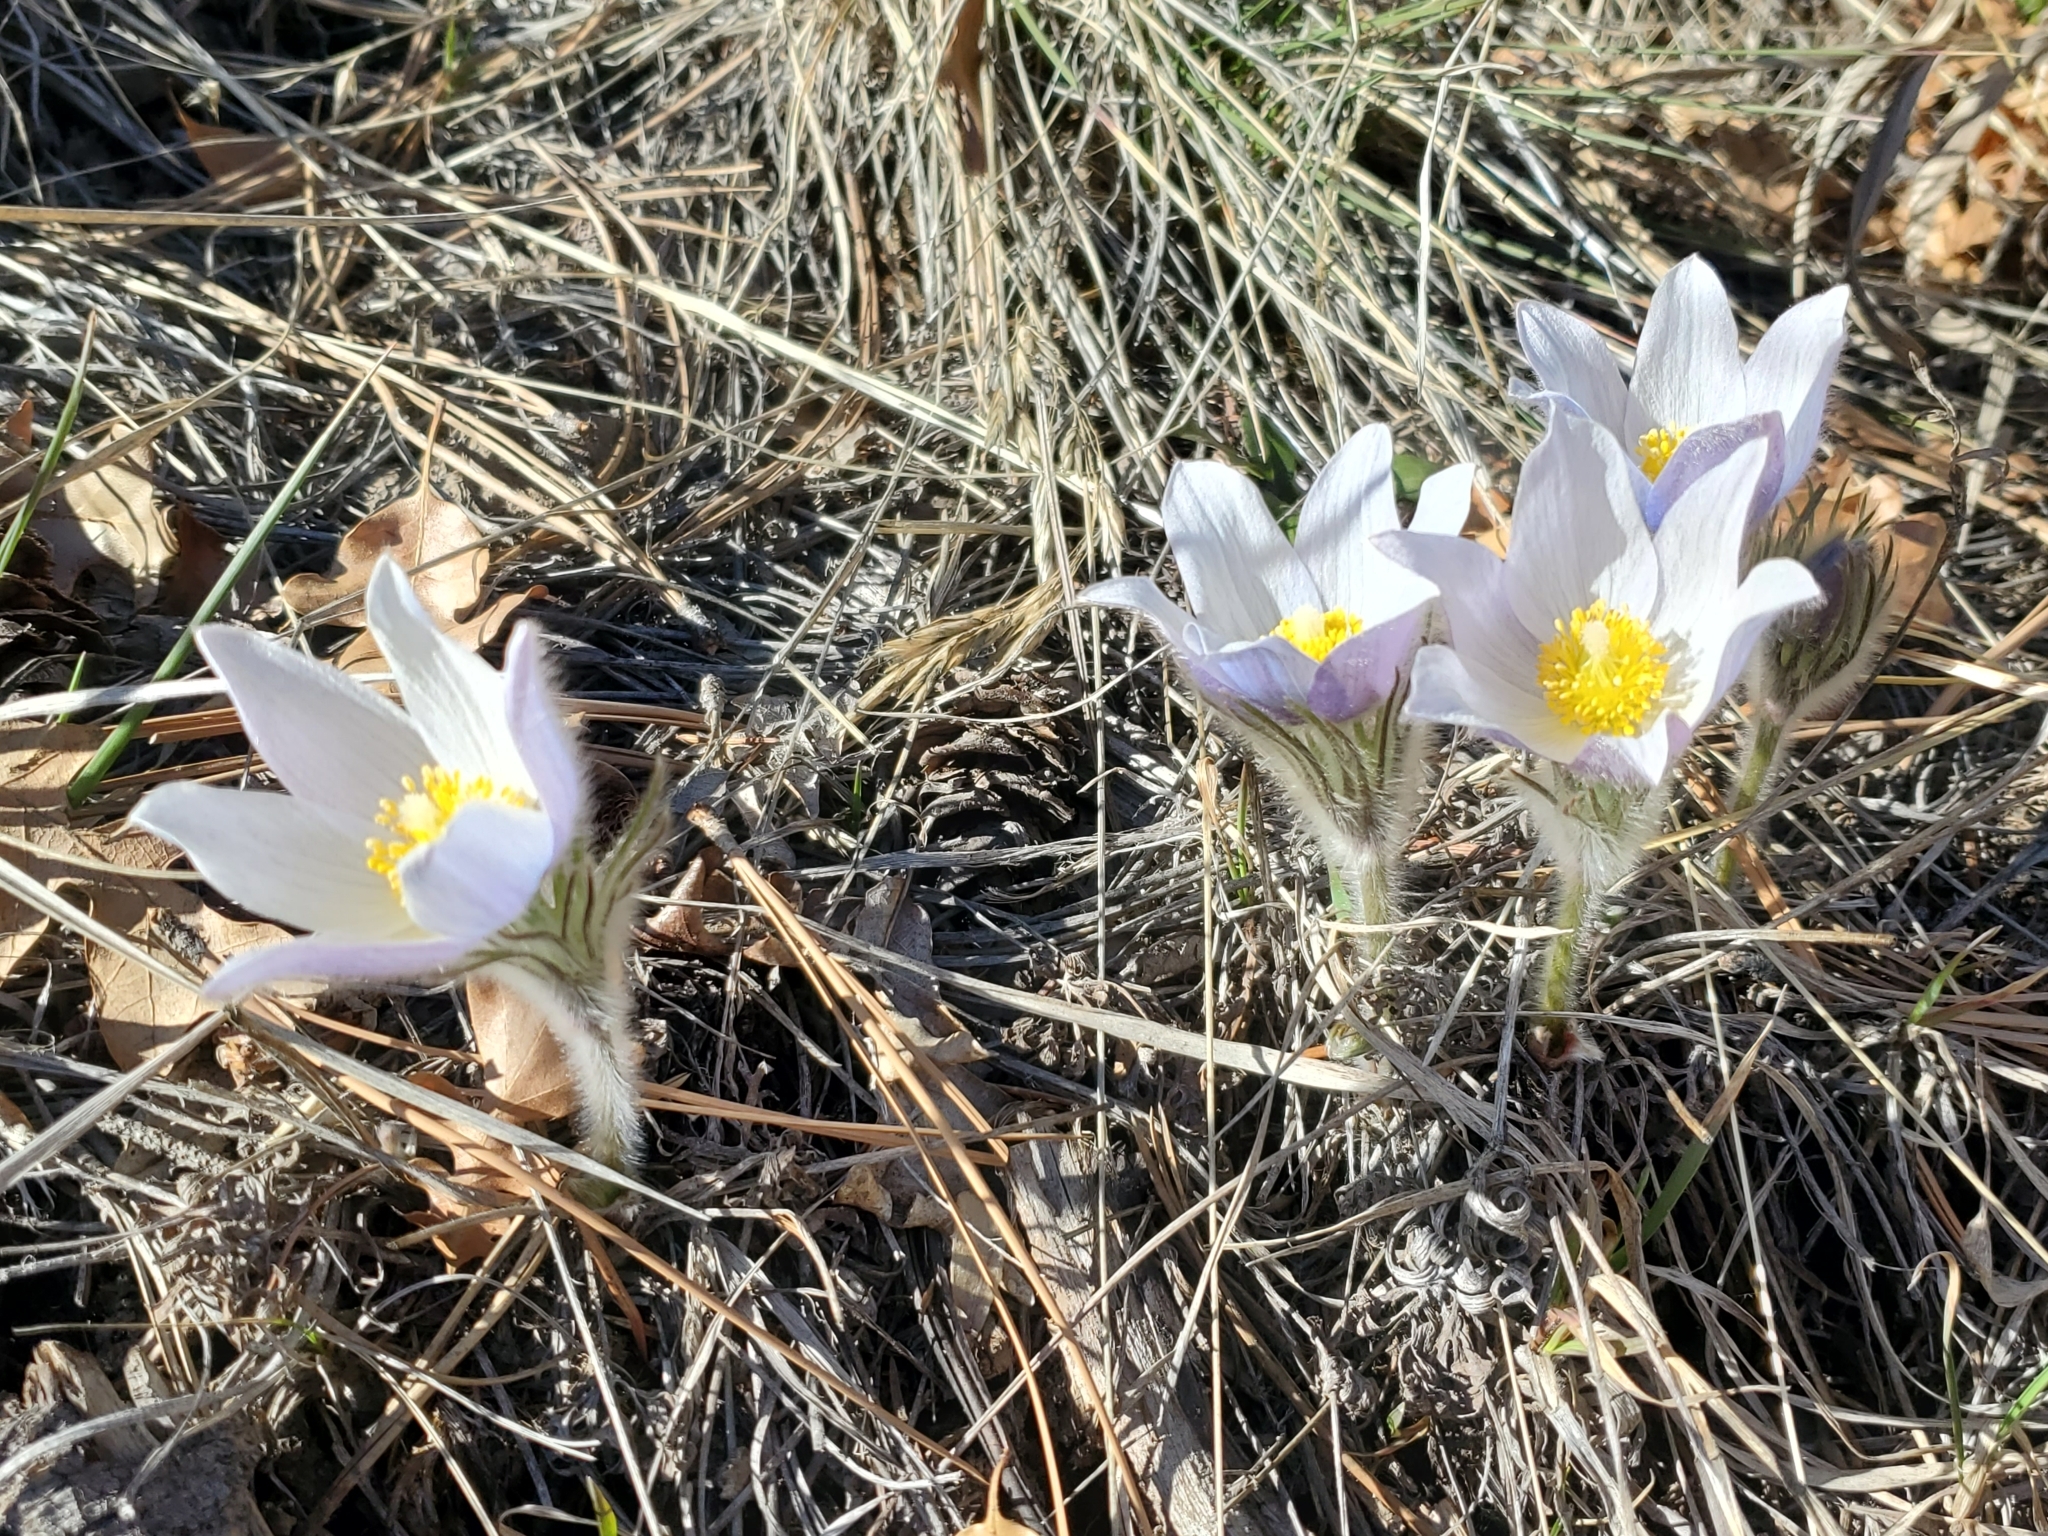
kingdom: Plantae
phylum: Tracheophyta
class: Magnoliopsida
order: Ranunculales
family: Ranunculaceae
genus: Pulsatilla
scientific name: Pulsatilla nuttalliana
